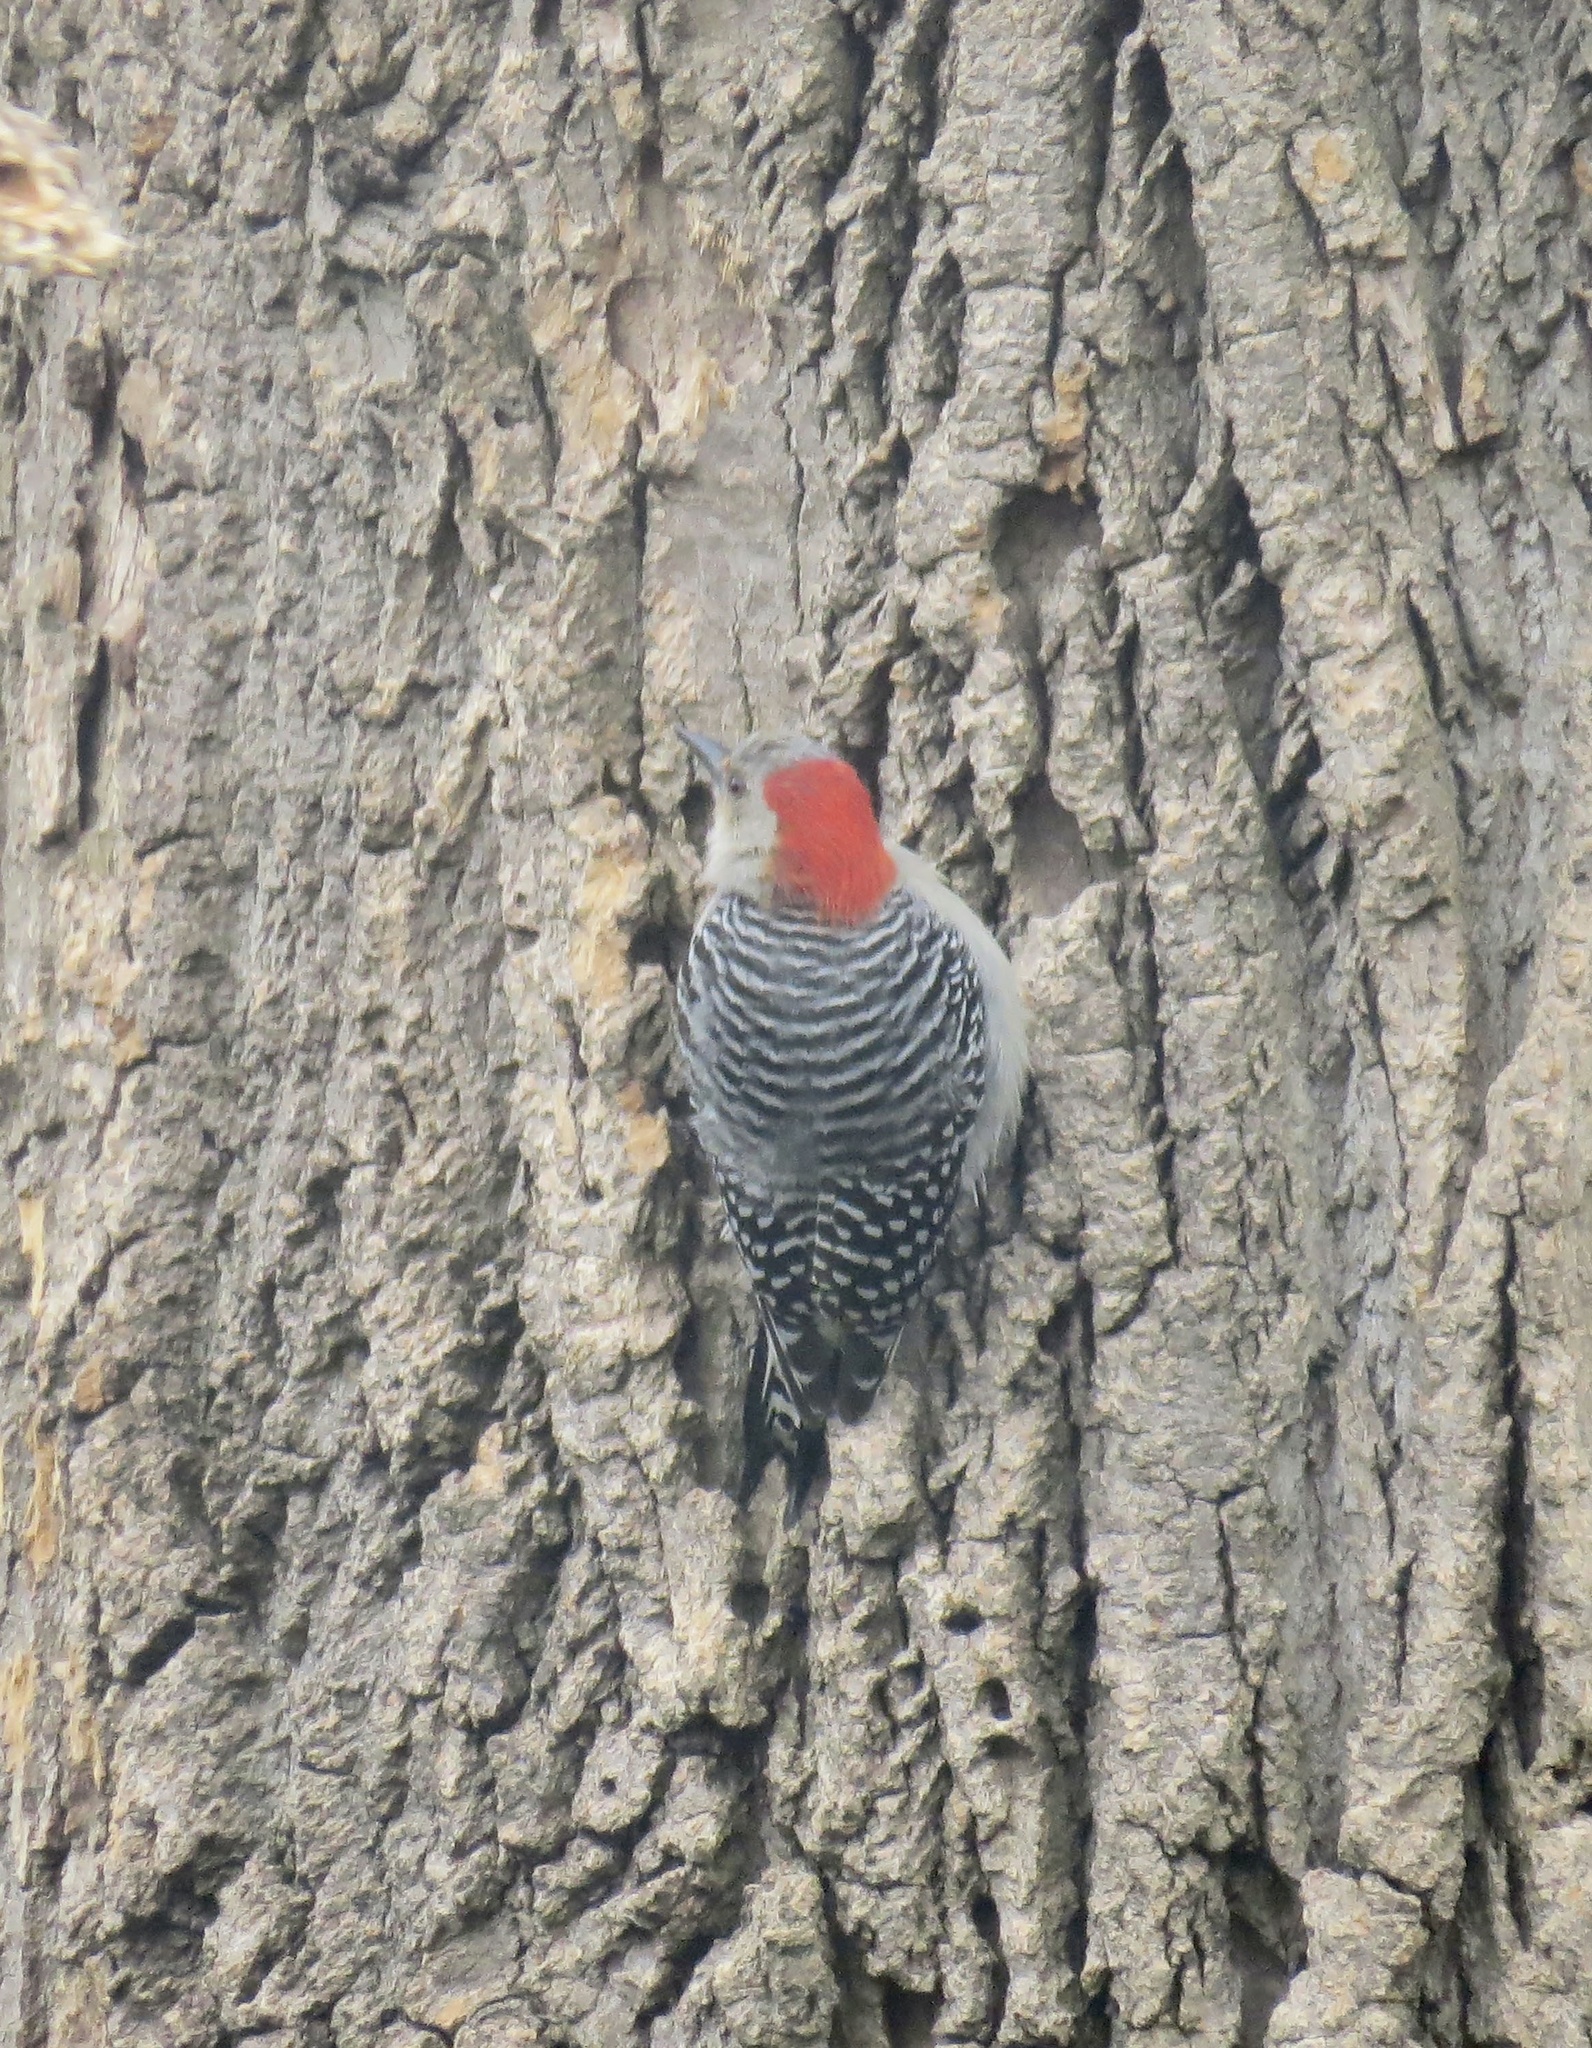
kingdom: Animalia
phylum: Chordata
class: Aves
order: Piciformes
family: Picidae
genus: Melanerpes
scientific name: Melanerpes carolinus
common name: Red-bellied woodpecker
